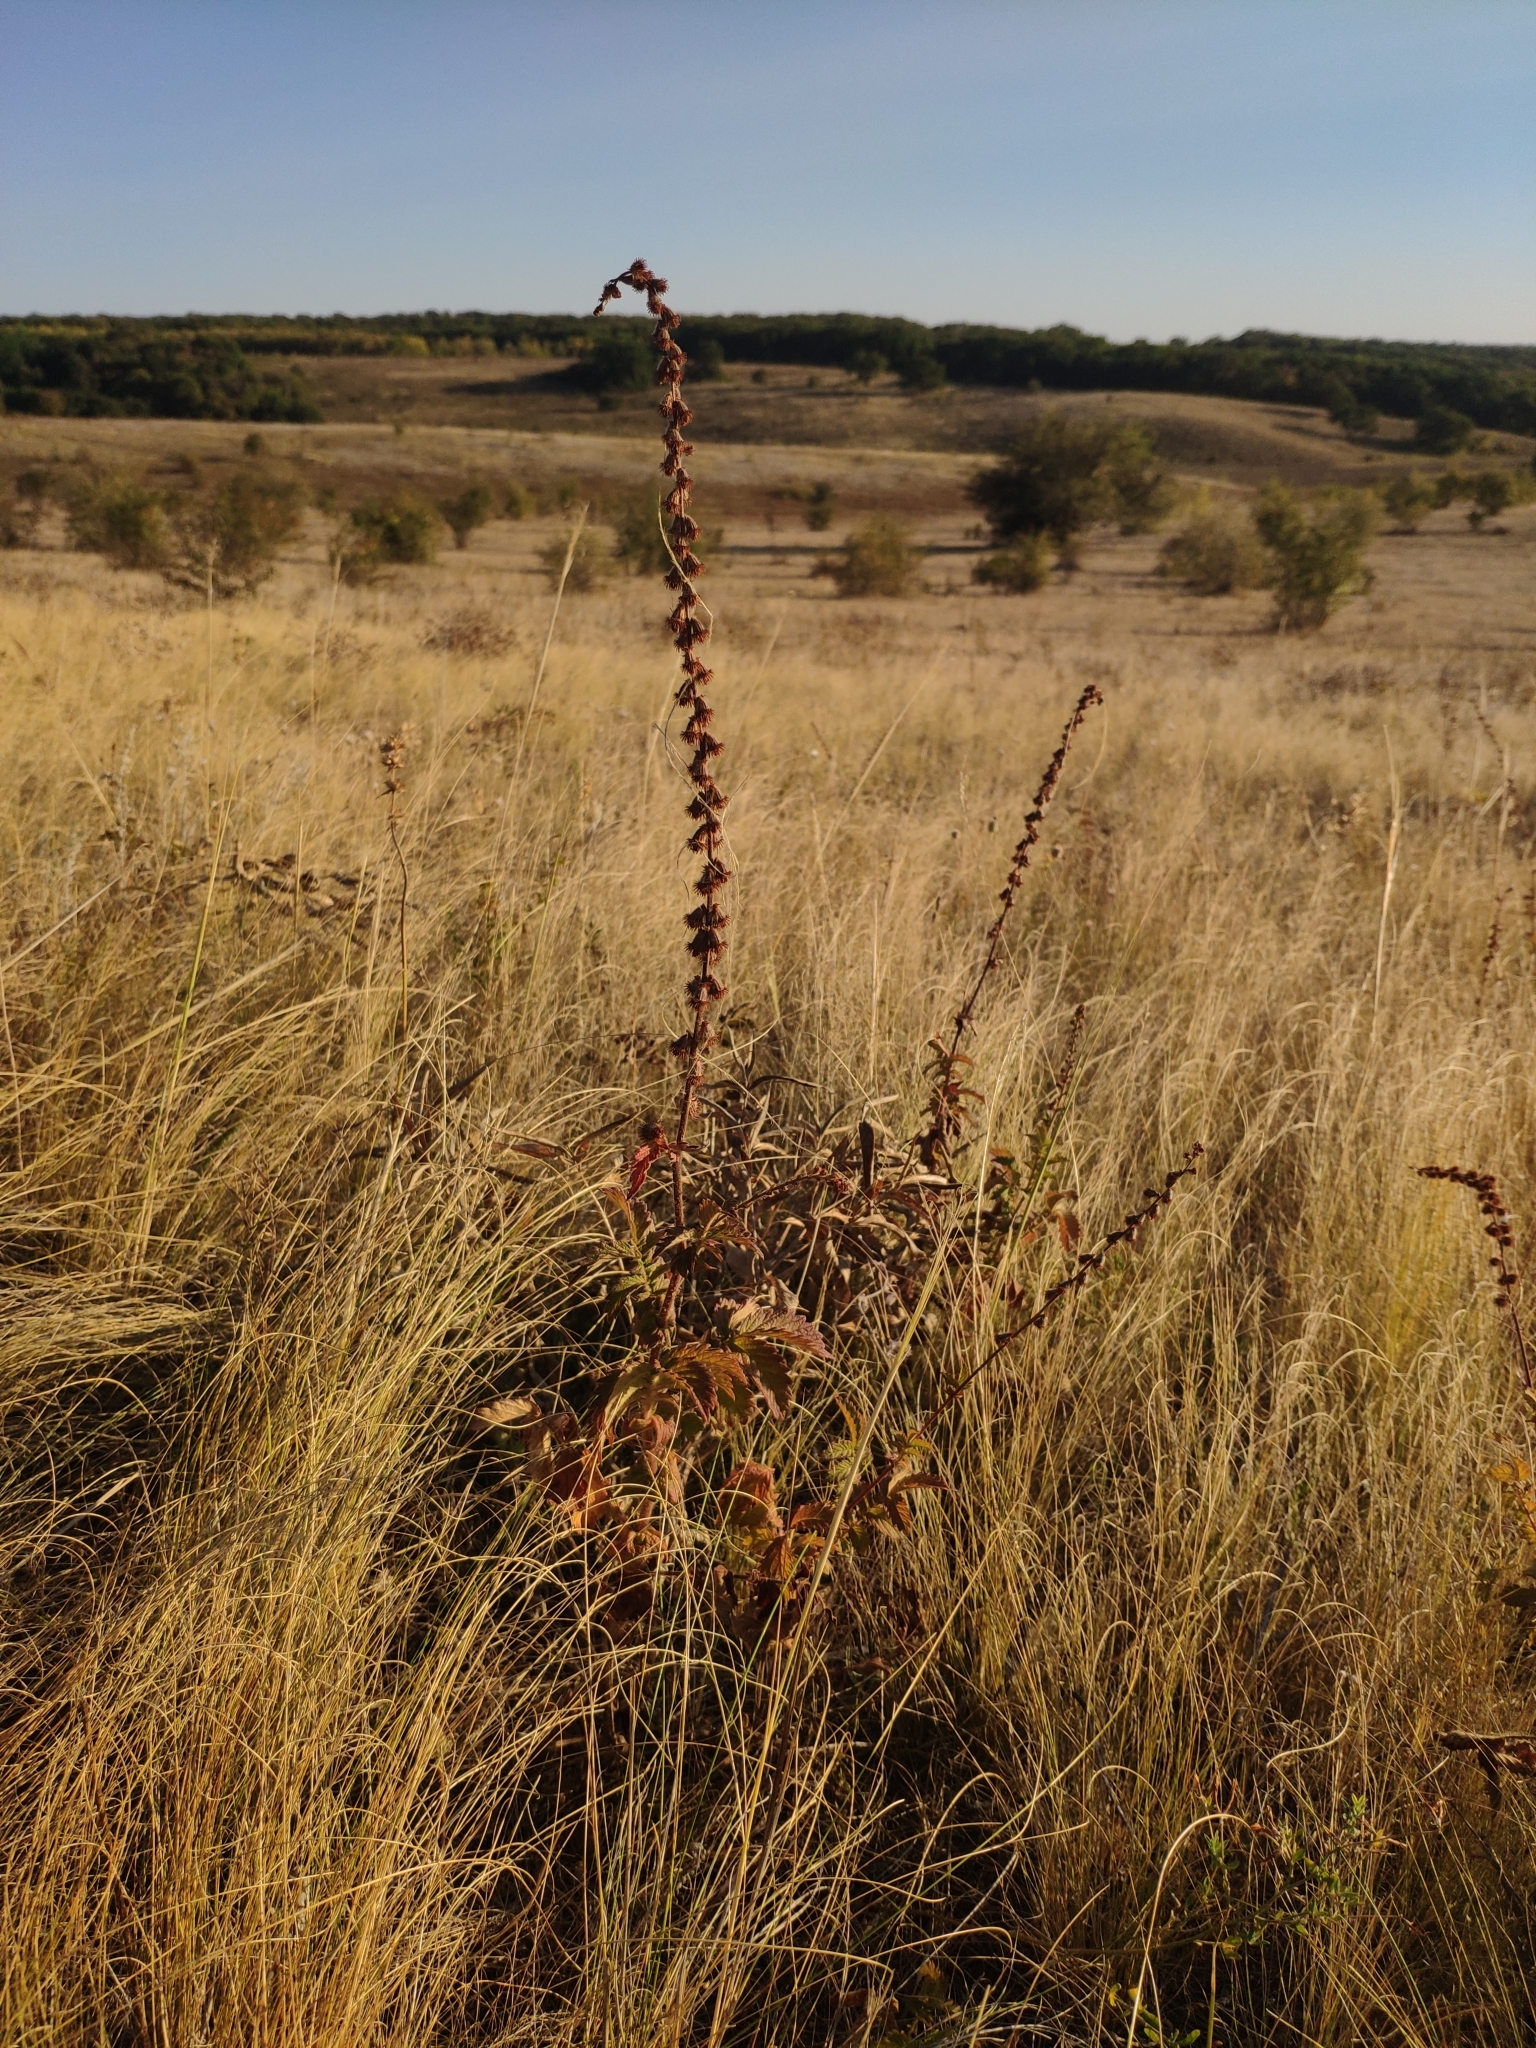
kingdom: Plantae
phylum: Tracheophyta
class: Magnoliopsida
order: Rosales
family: Rosaceae
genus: Agrimonia
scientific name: Agrimonia eupatoria
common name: Agrimony
